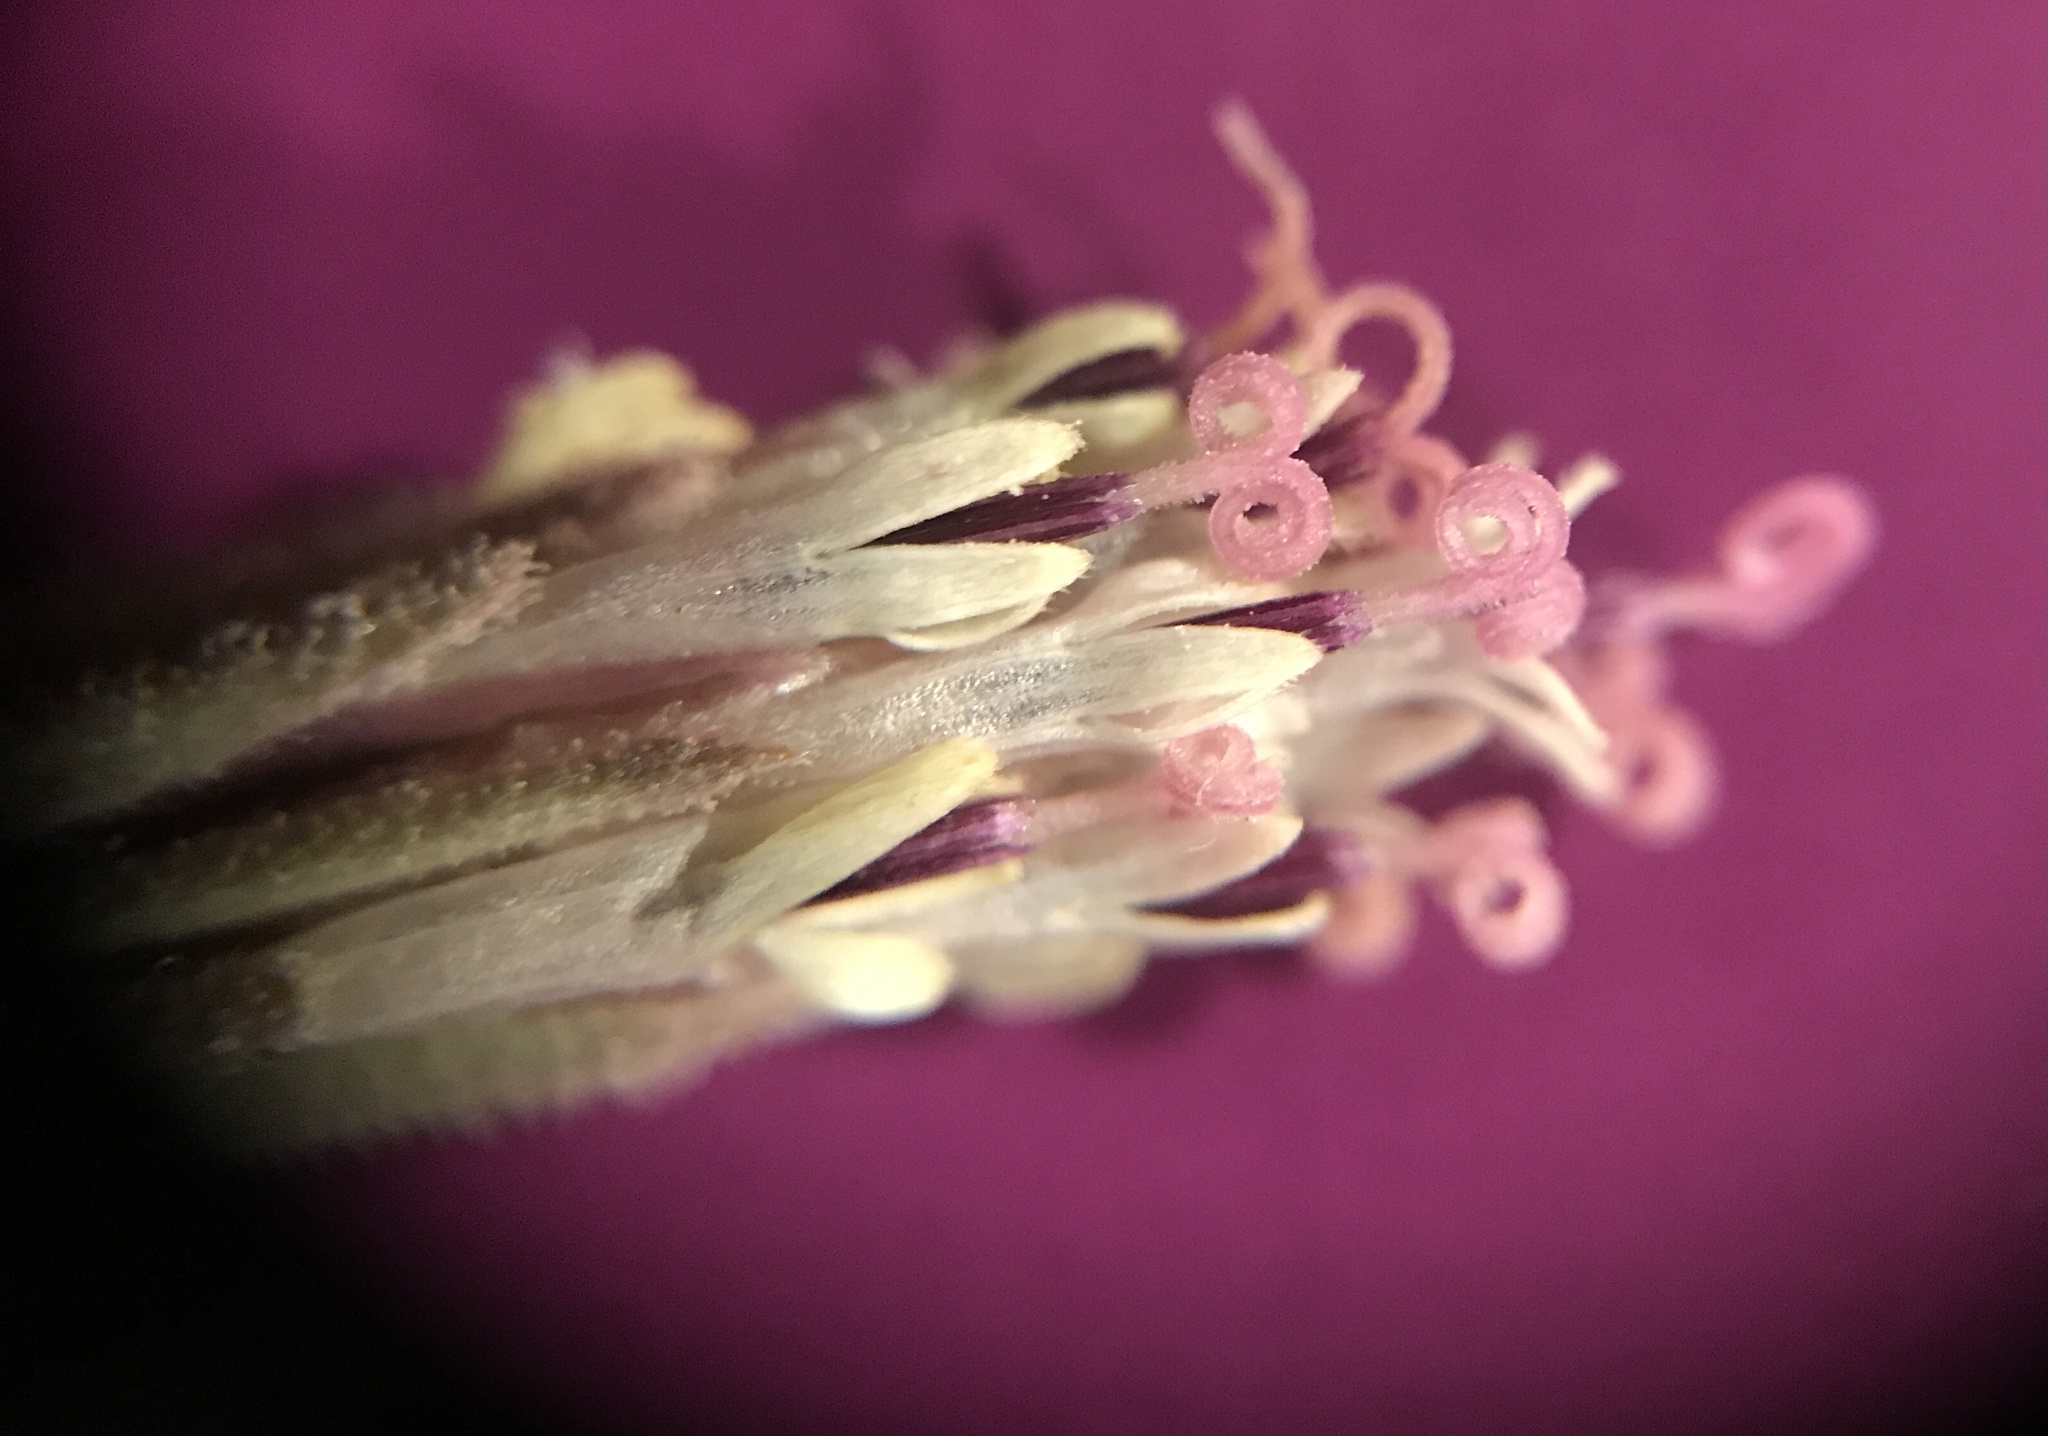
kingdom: Plantae
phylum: Tracheophyta
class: Magnoliopsida
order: Asterales
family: Asteraceae
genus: Palafoxia
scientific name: Palafoxia arida
